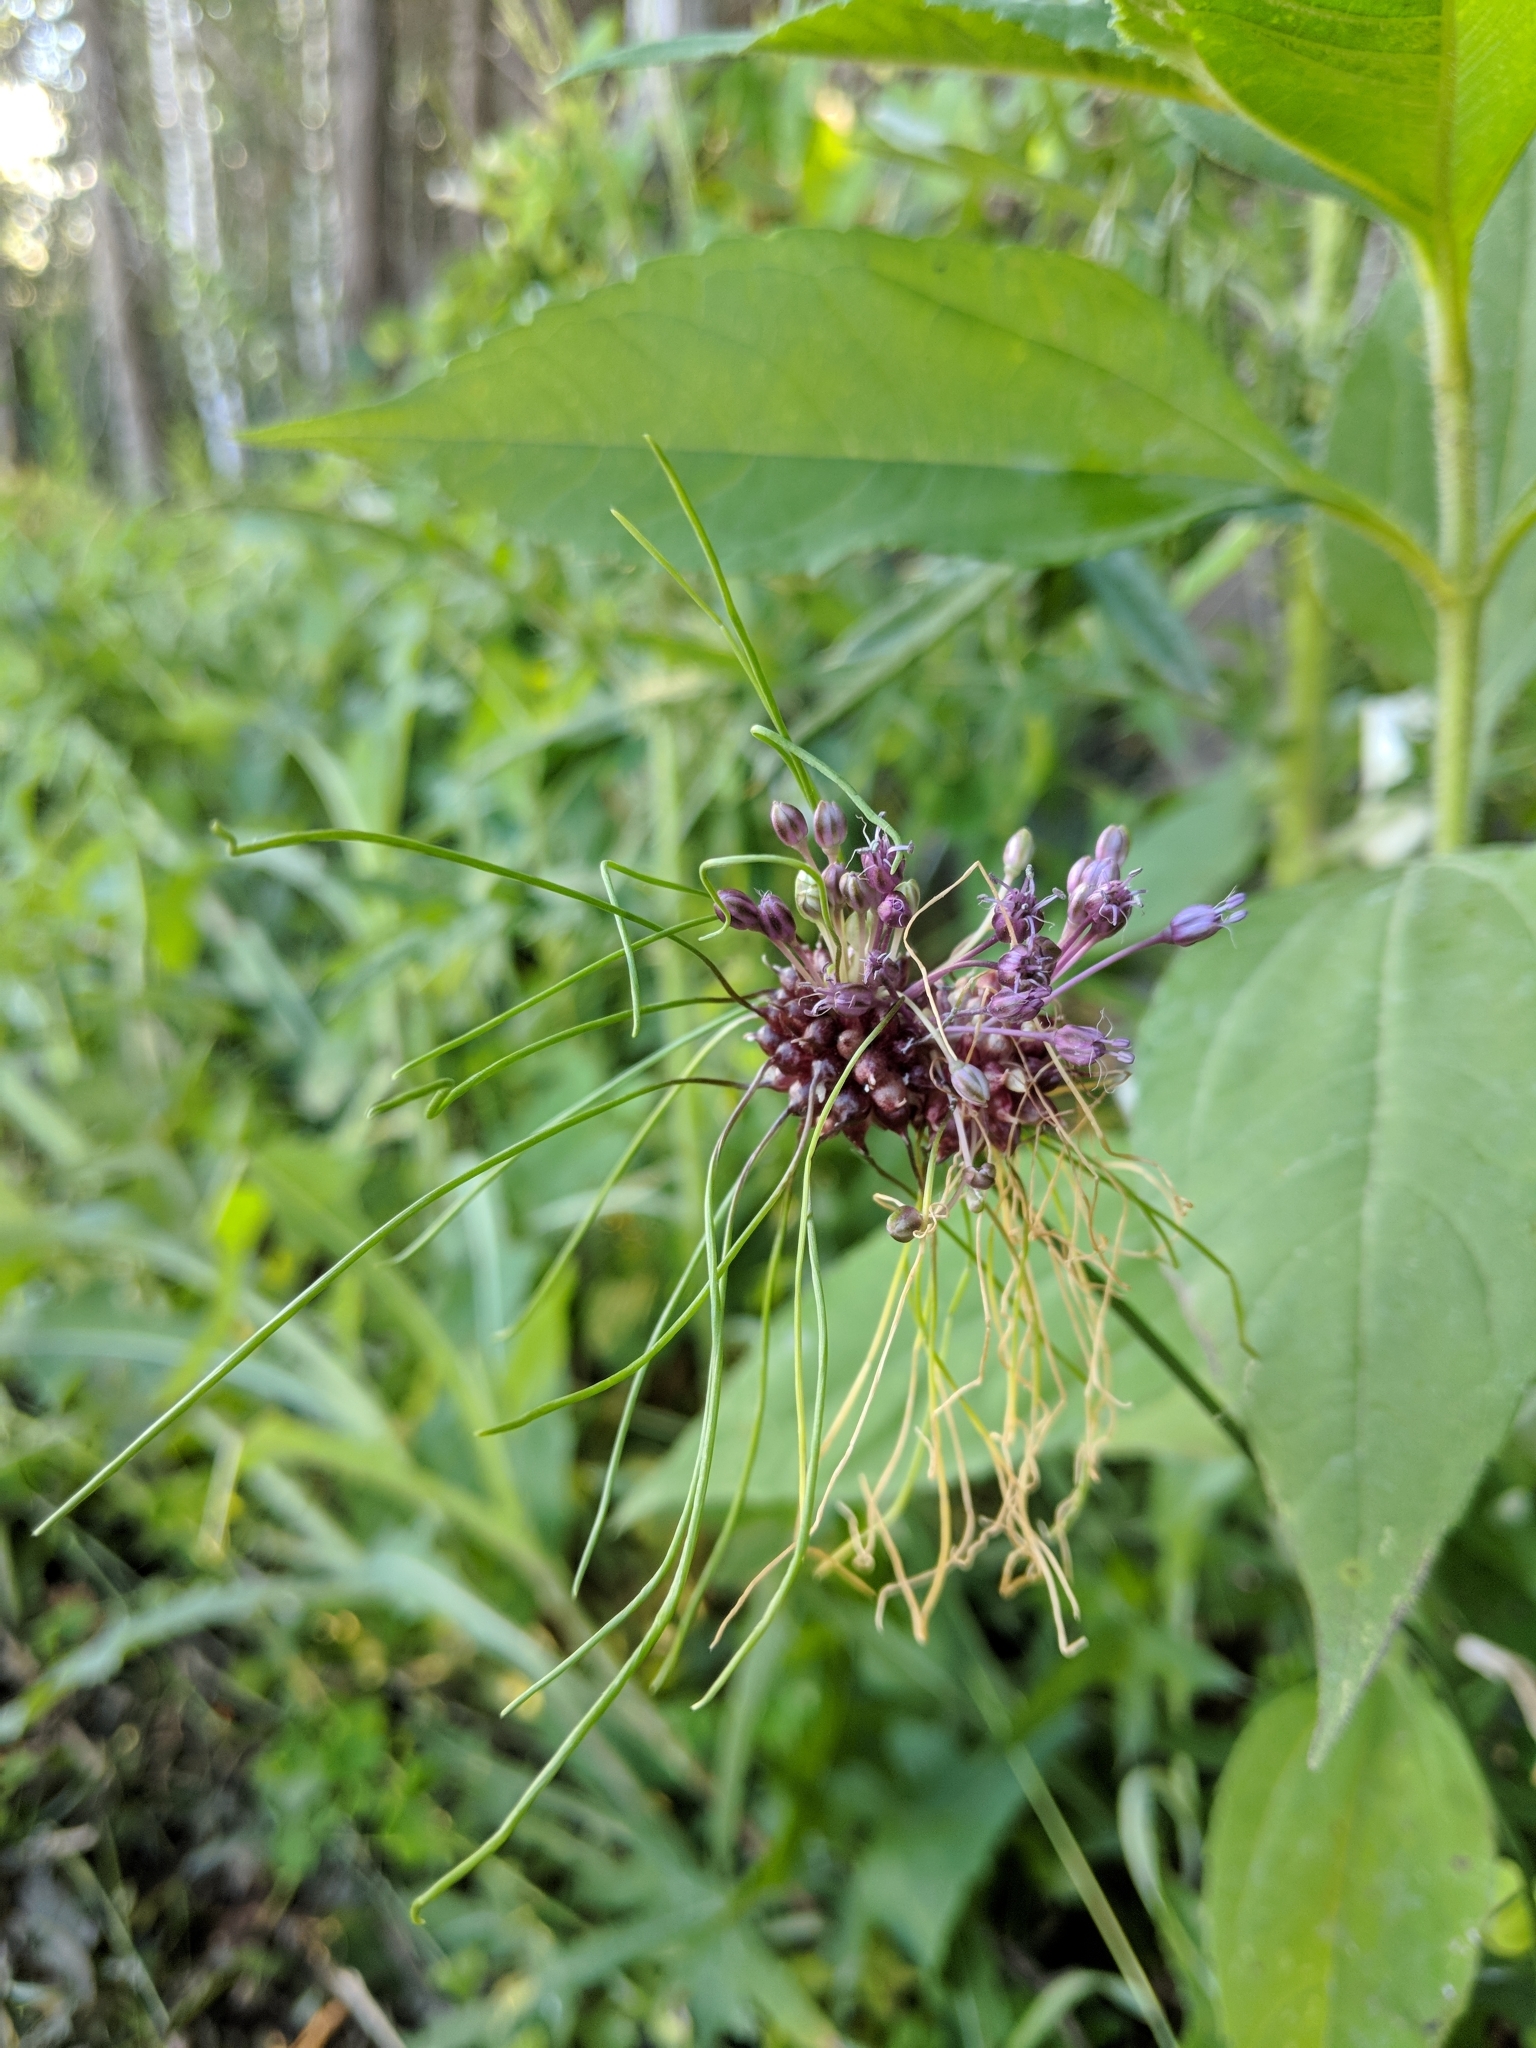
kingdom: Plantae
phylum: Tracheophyta
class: Liliopsida
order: Asparagales
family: Amaryllidaceae
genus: Allium
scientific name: Allium vineale
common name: Crow garlic
